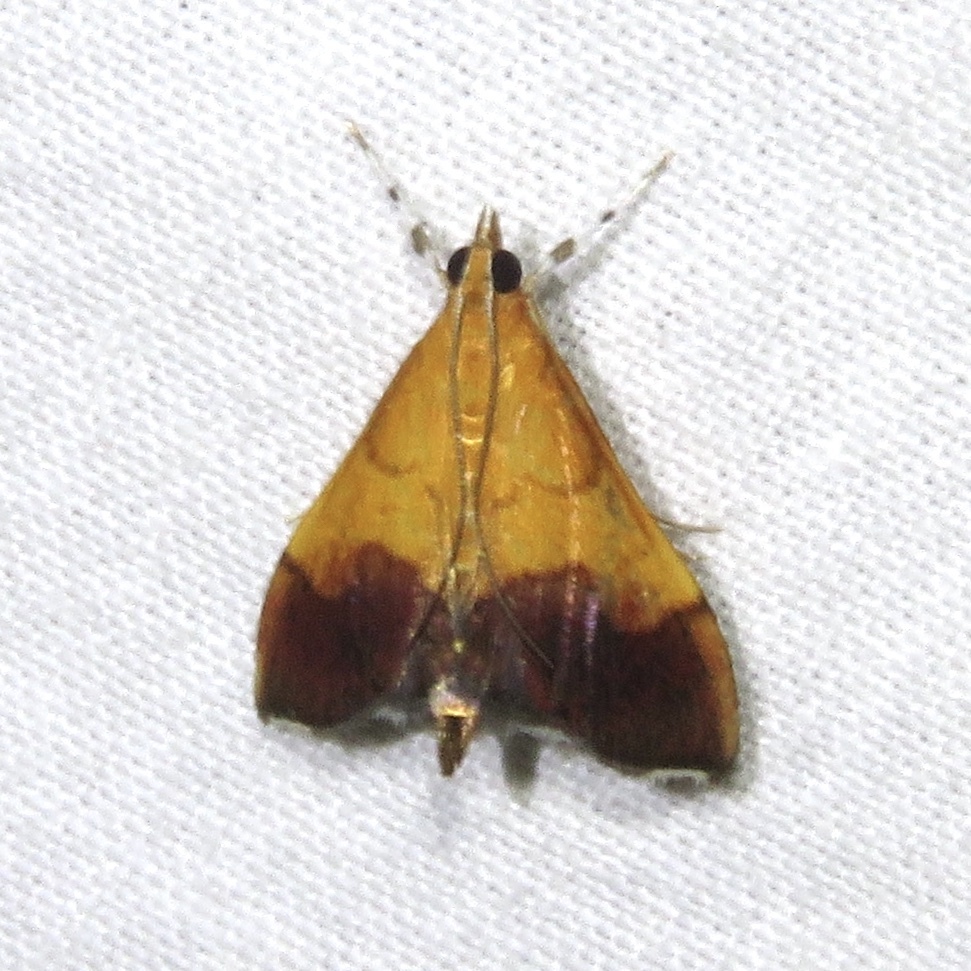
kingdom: Animalia
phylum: Arthropoda
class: Insecta
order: Lepidoptera
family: Crambidae
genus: Pyrausta
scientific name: Pyrausta bicoloralis
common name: Bicolored pyrausta moth
